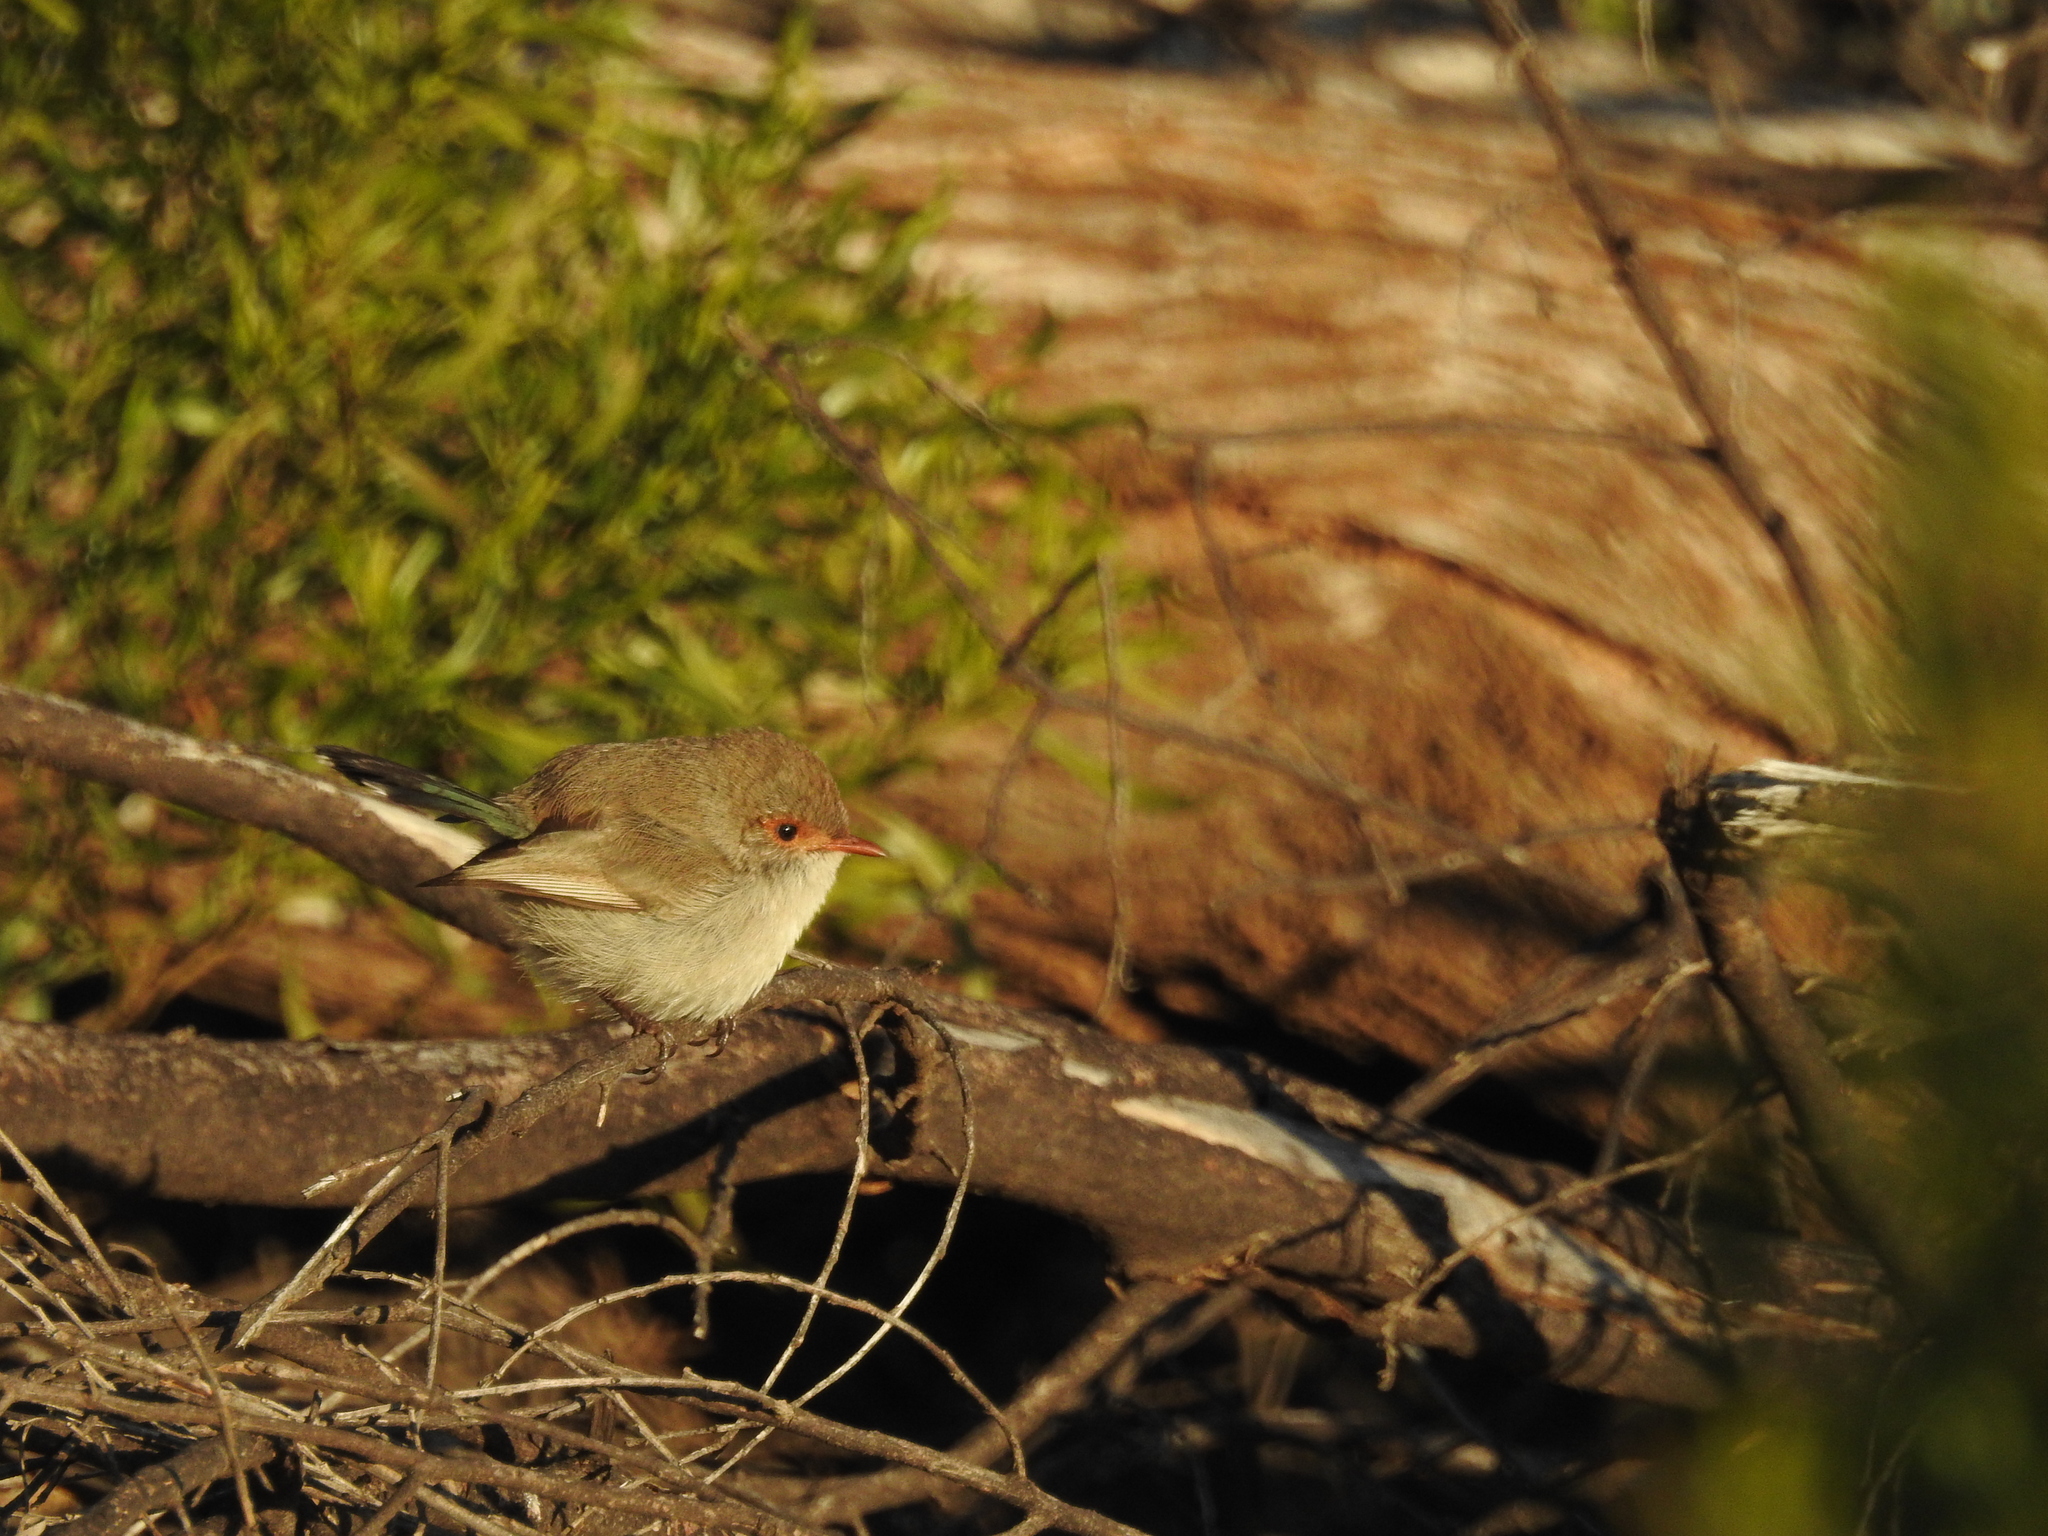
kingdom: Animalia
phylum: Chordata
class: Aves
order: Passeriformes
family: Maluridae
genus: Malurus
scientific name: Malurus splendens
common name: Splendid fairywren
